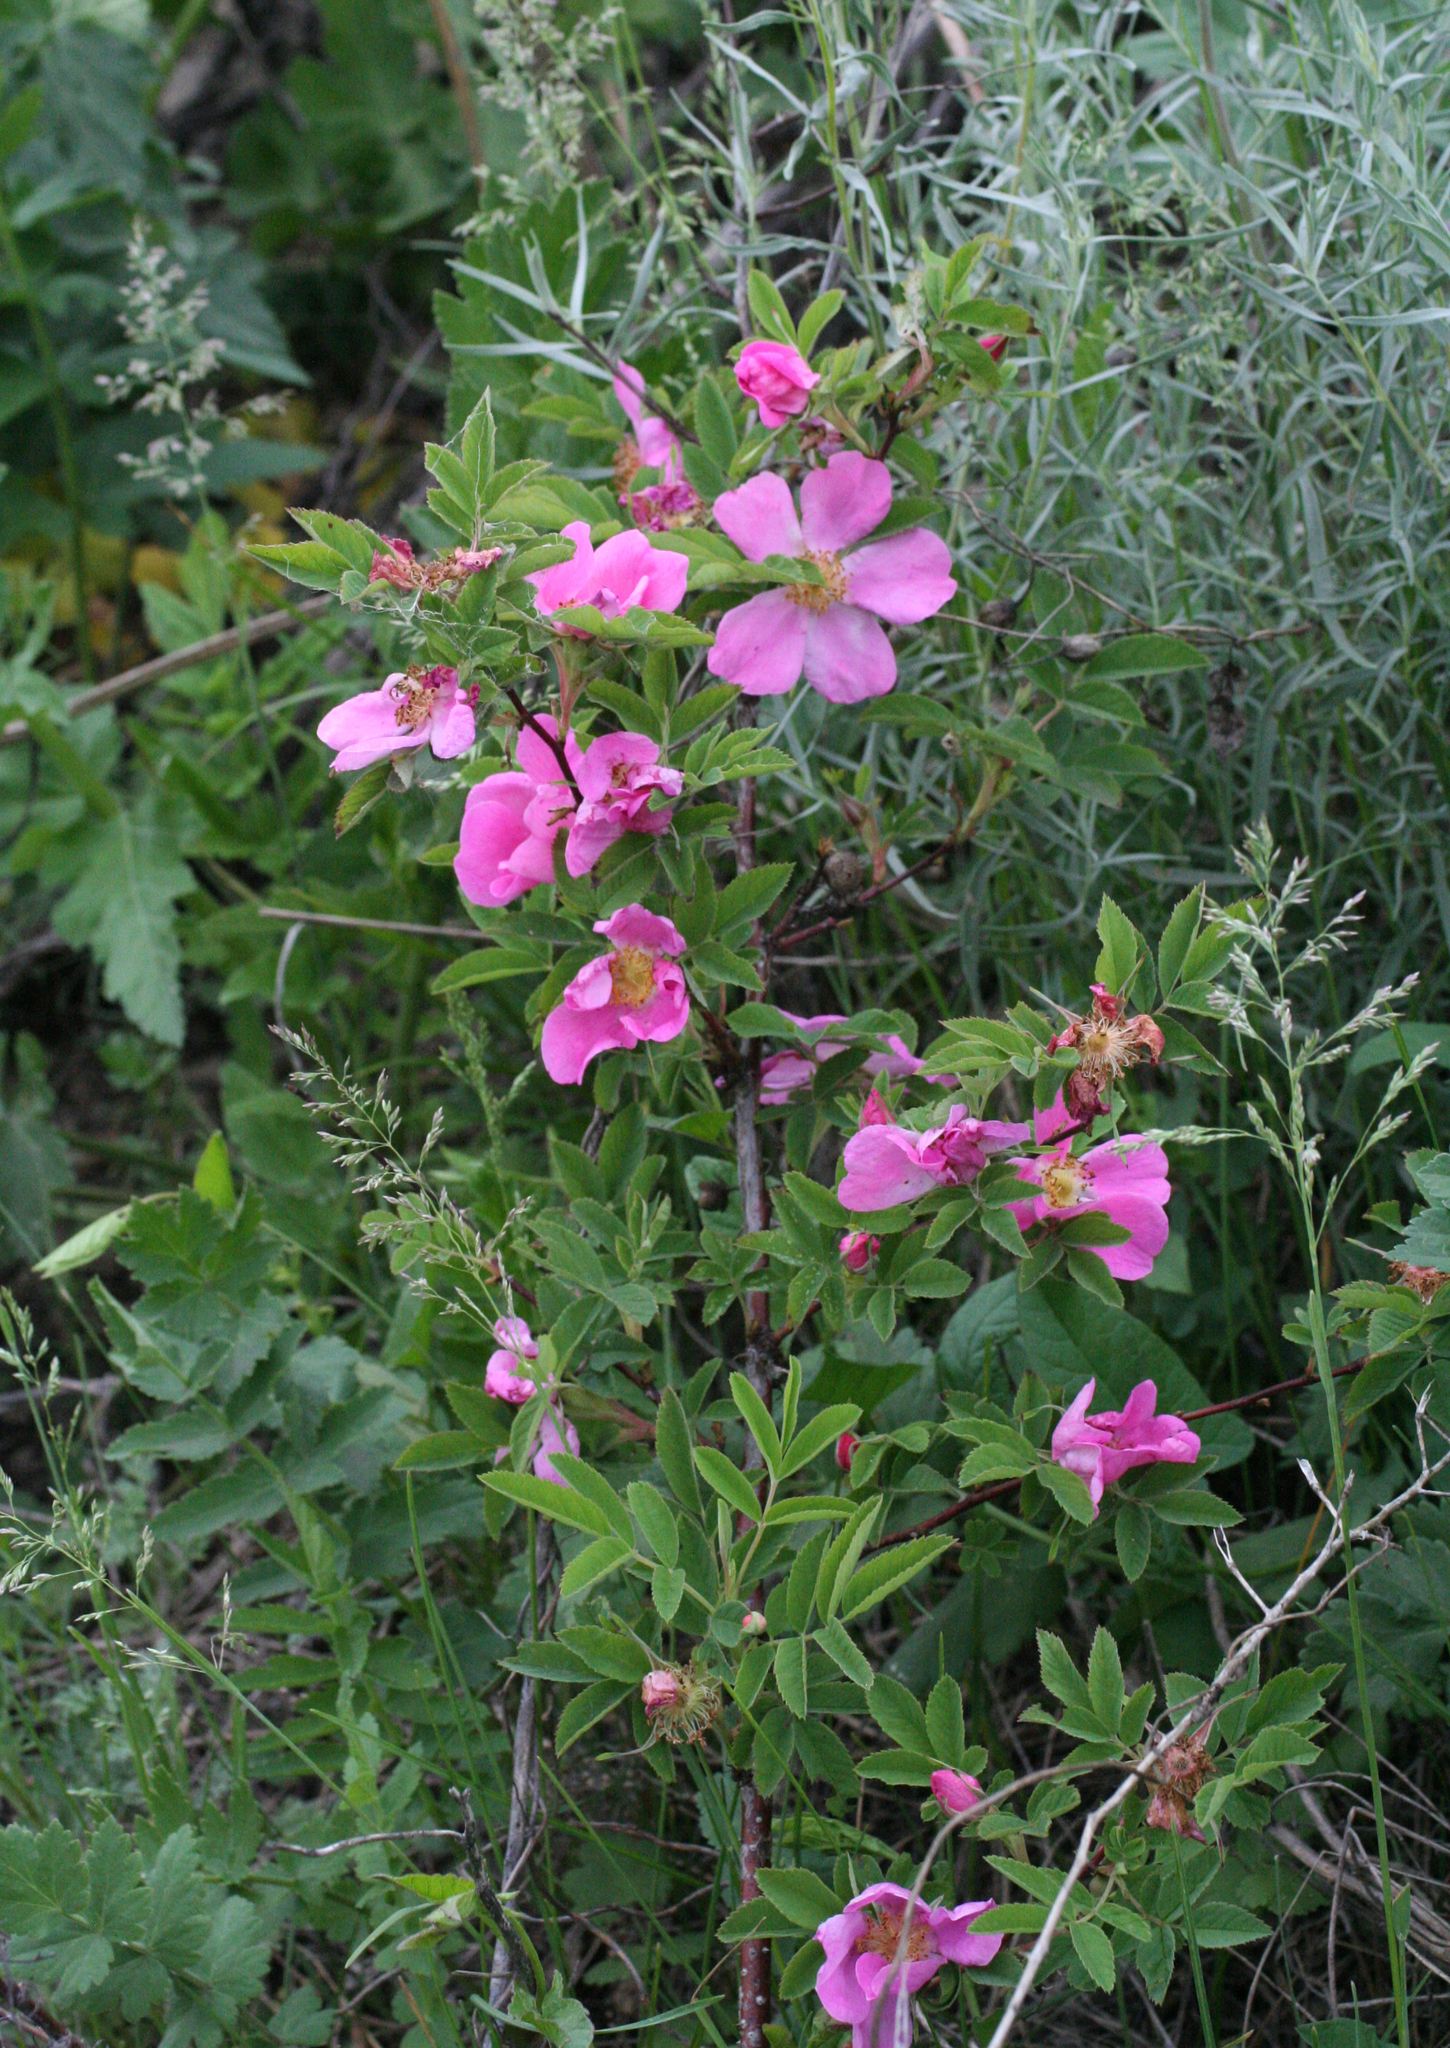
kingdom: Plantae
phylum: Tracheophyta
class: Magnoliopsida
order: Rosales
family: Rosaceae
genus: Rosa
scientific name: Rosa majalis
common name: Cinnamon rose
